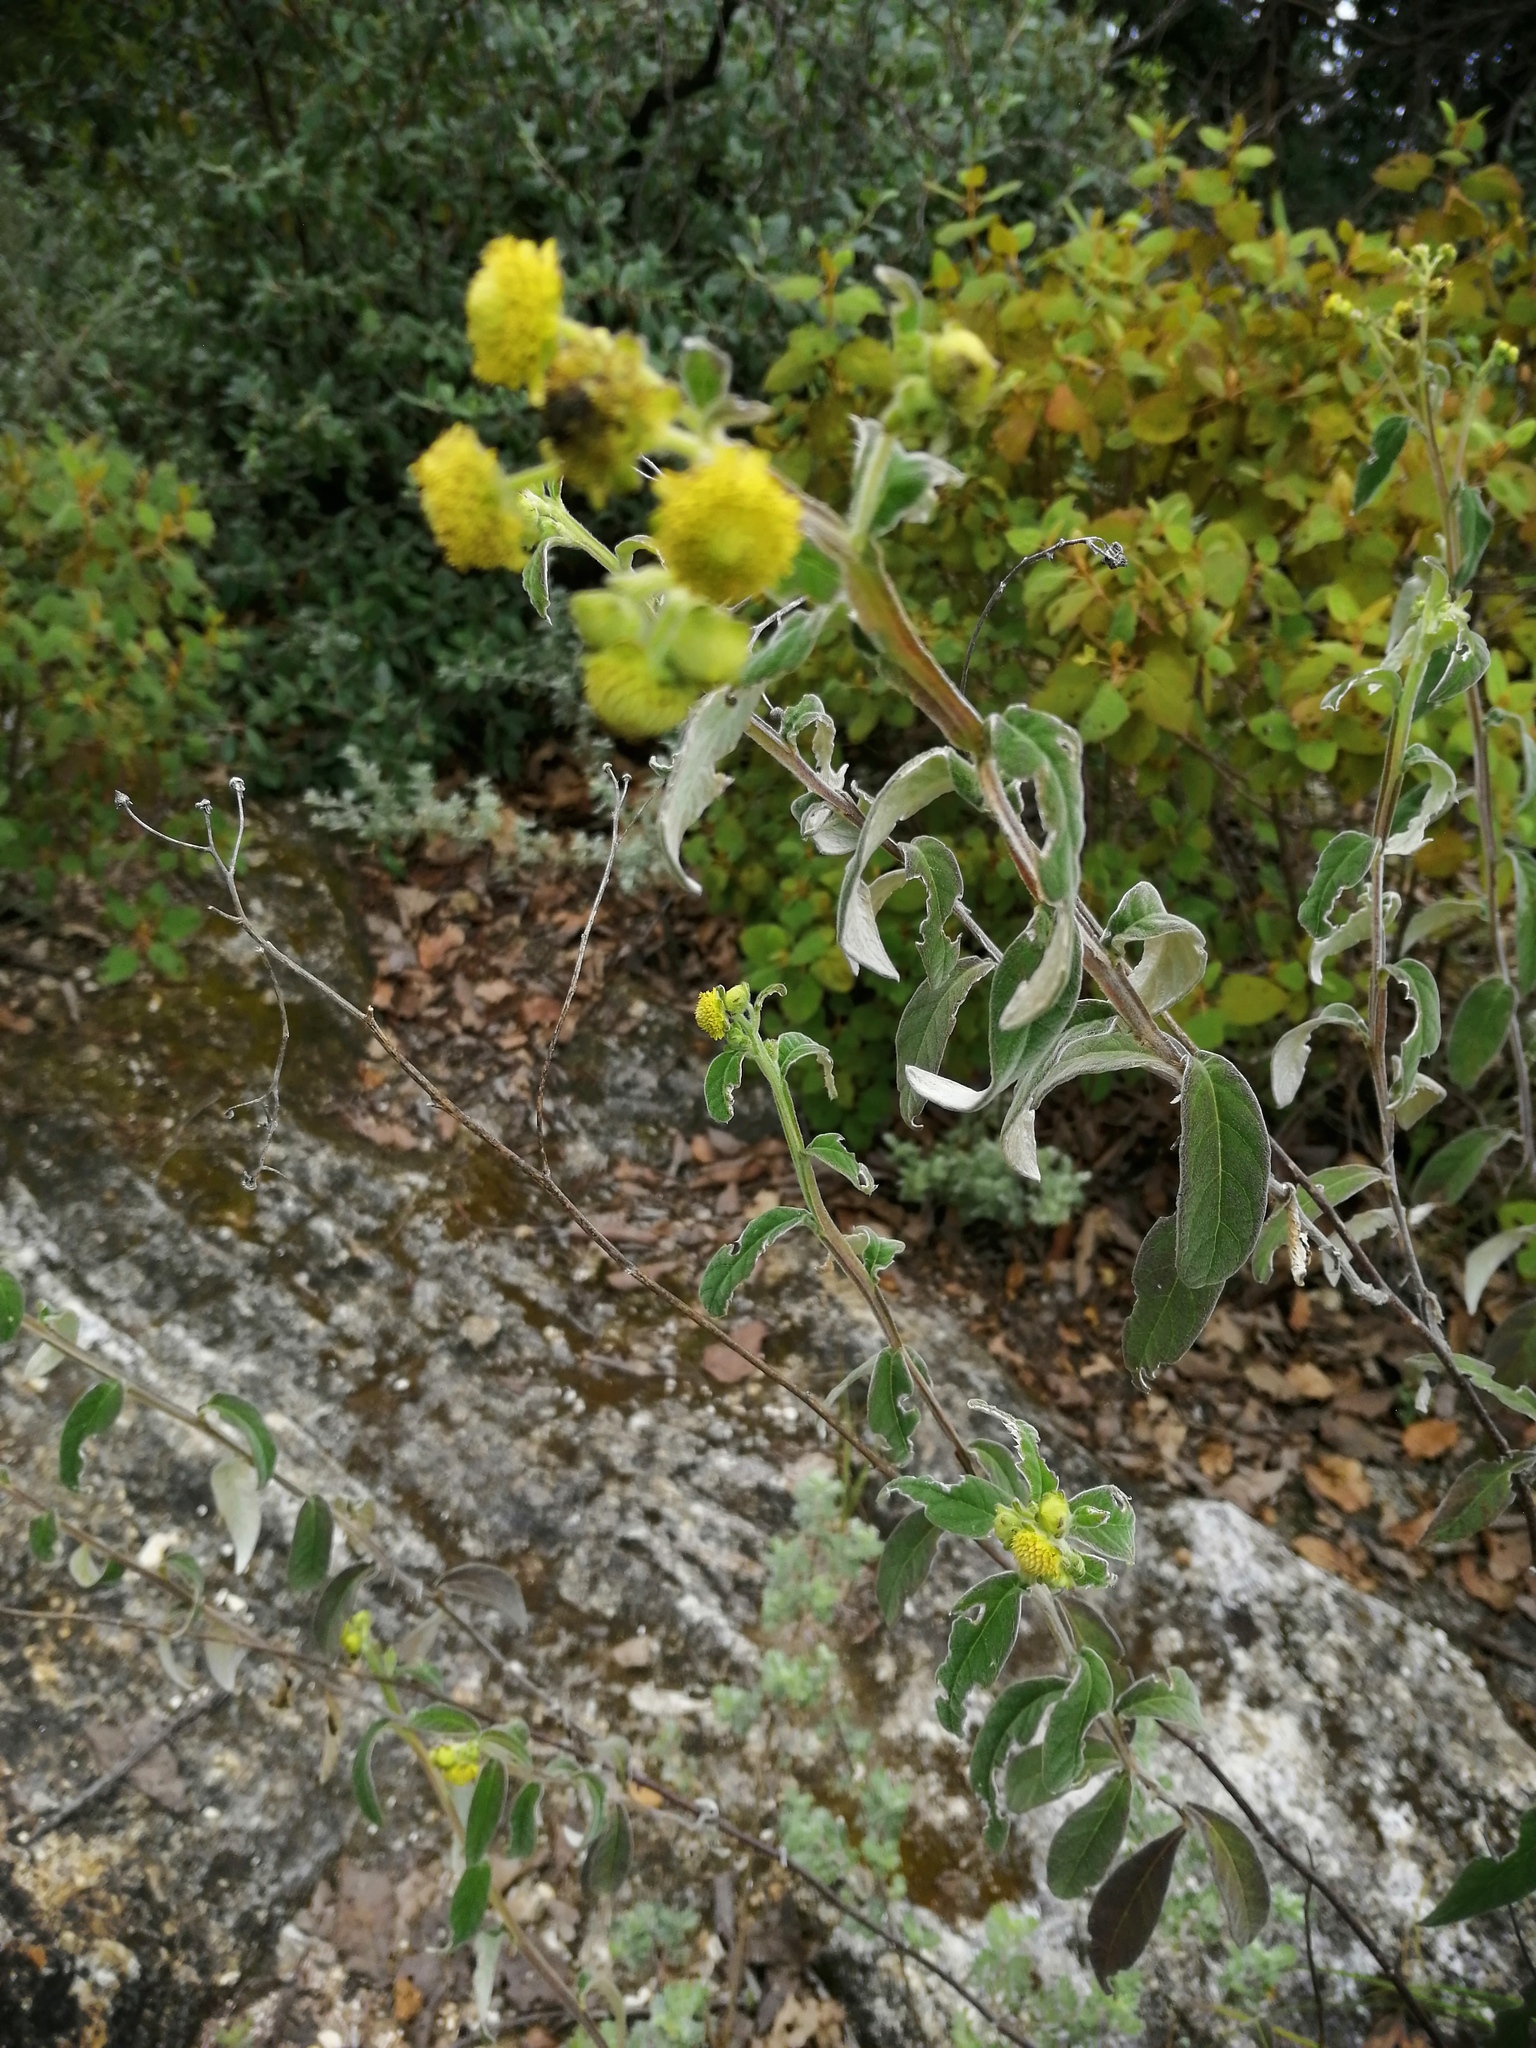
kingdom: Plantae
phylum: Tracheophyta
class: Magnoliopsida
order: Asterales
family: Asteraceae
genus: Verbesina
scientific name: Verbesina sericea
